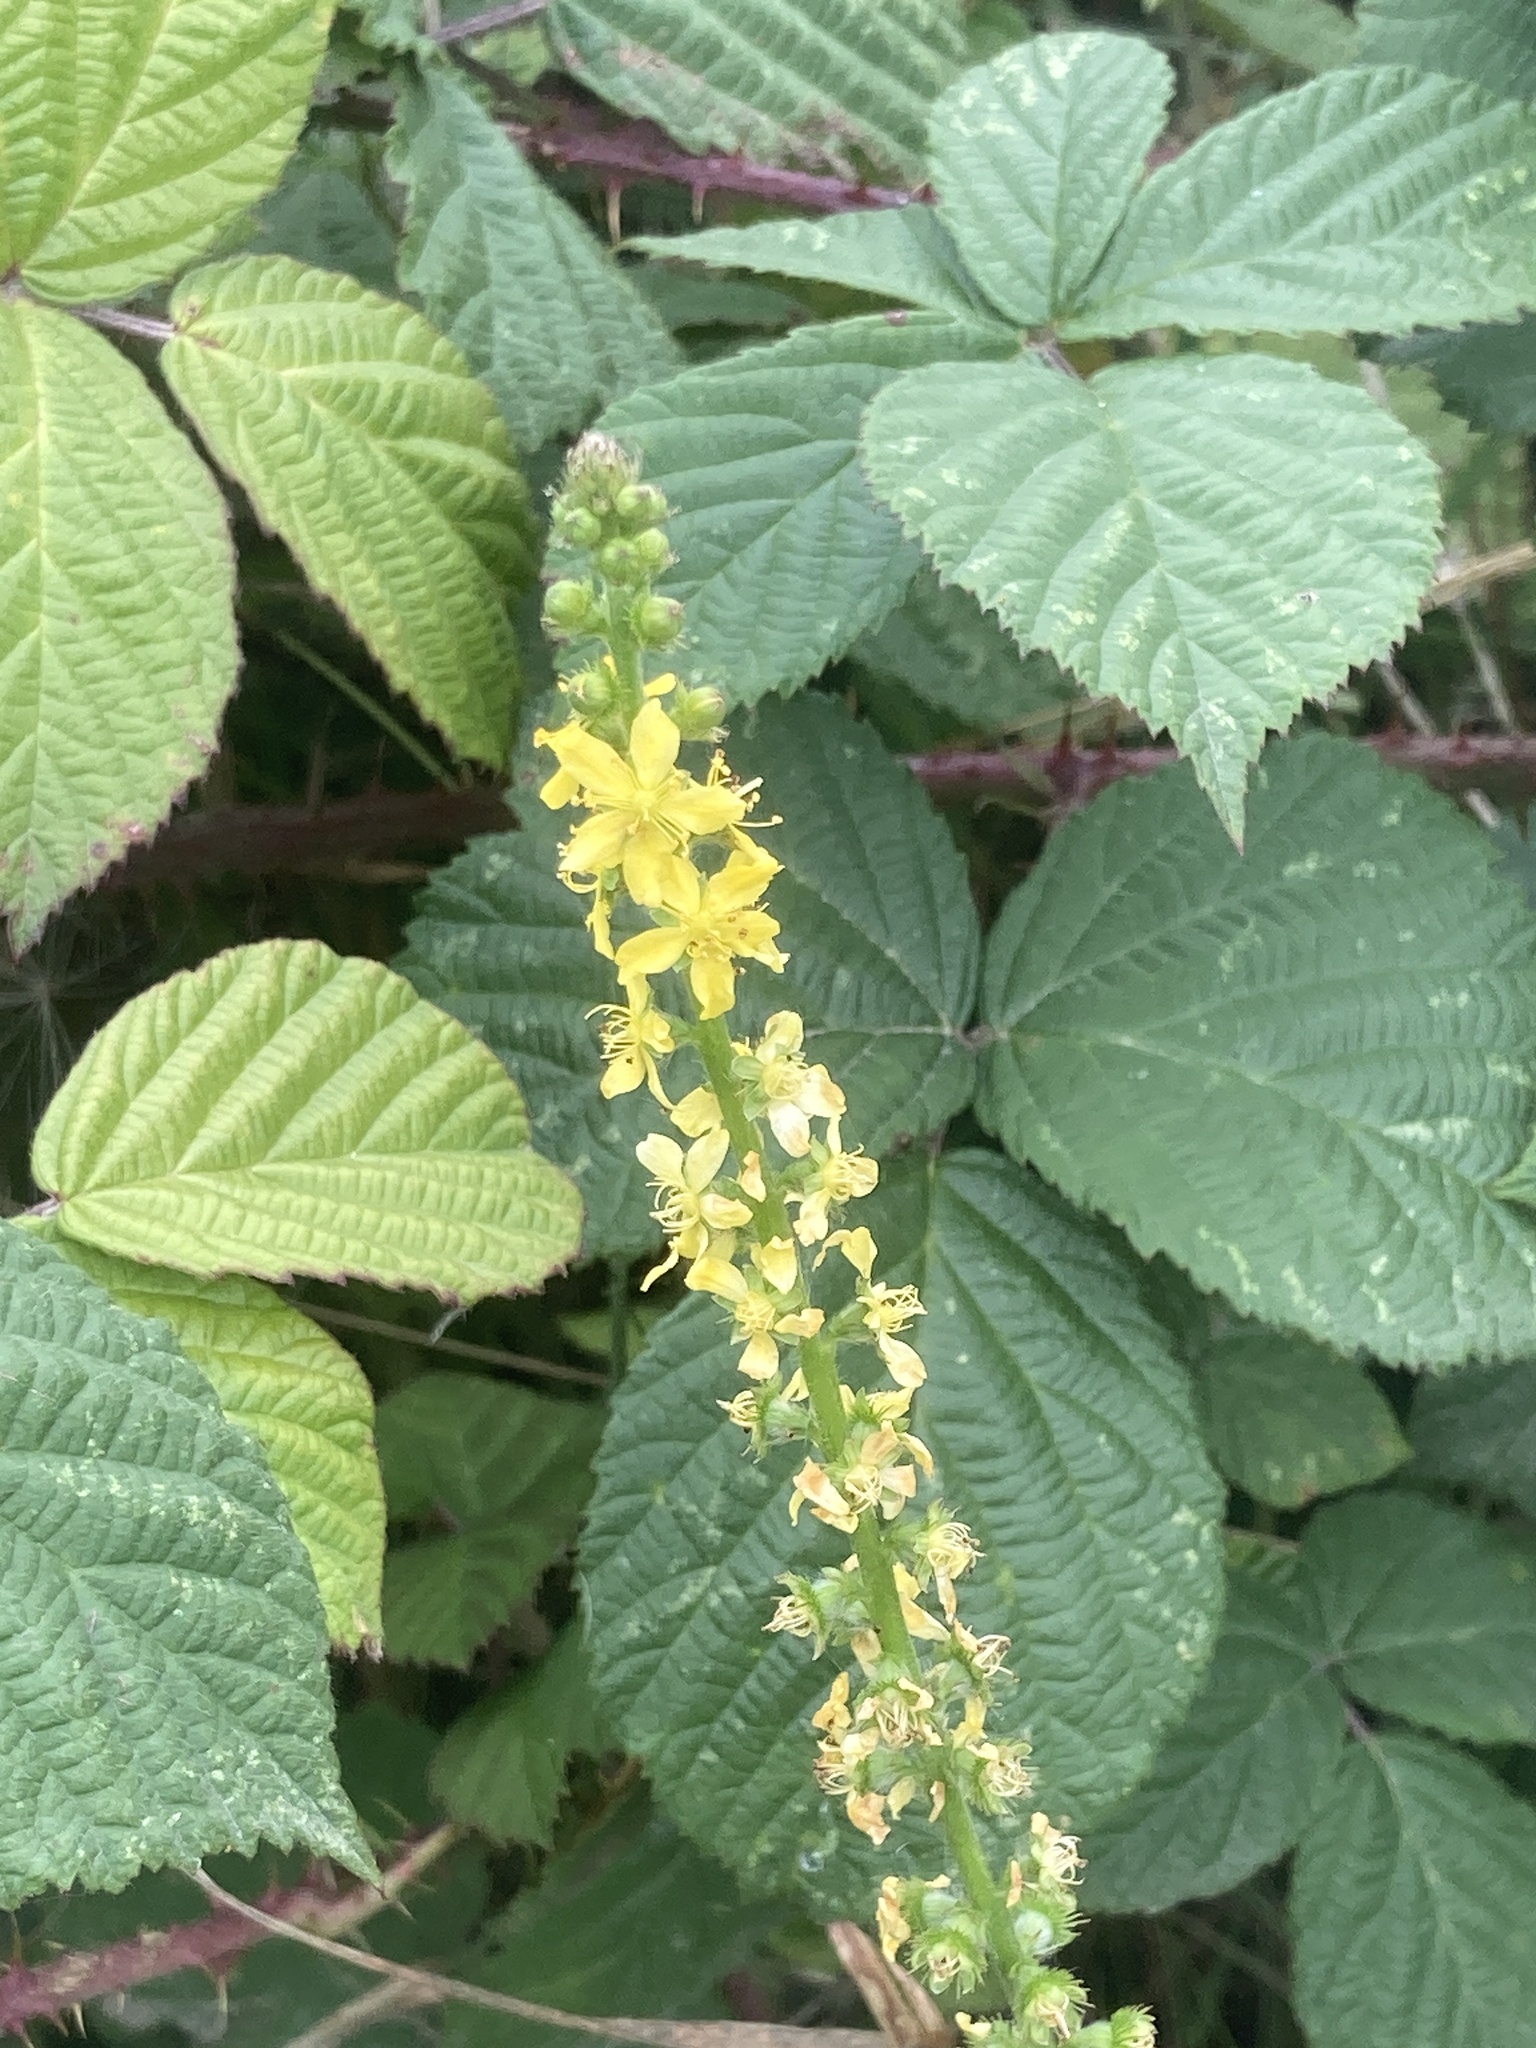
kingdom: Plantae
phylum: Tracheophyta
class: Magnoliopsida
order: Rosales
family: Rosaceae
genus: Agrimonia
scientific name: Agrimonia eupatoria
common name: Agrimony
